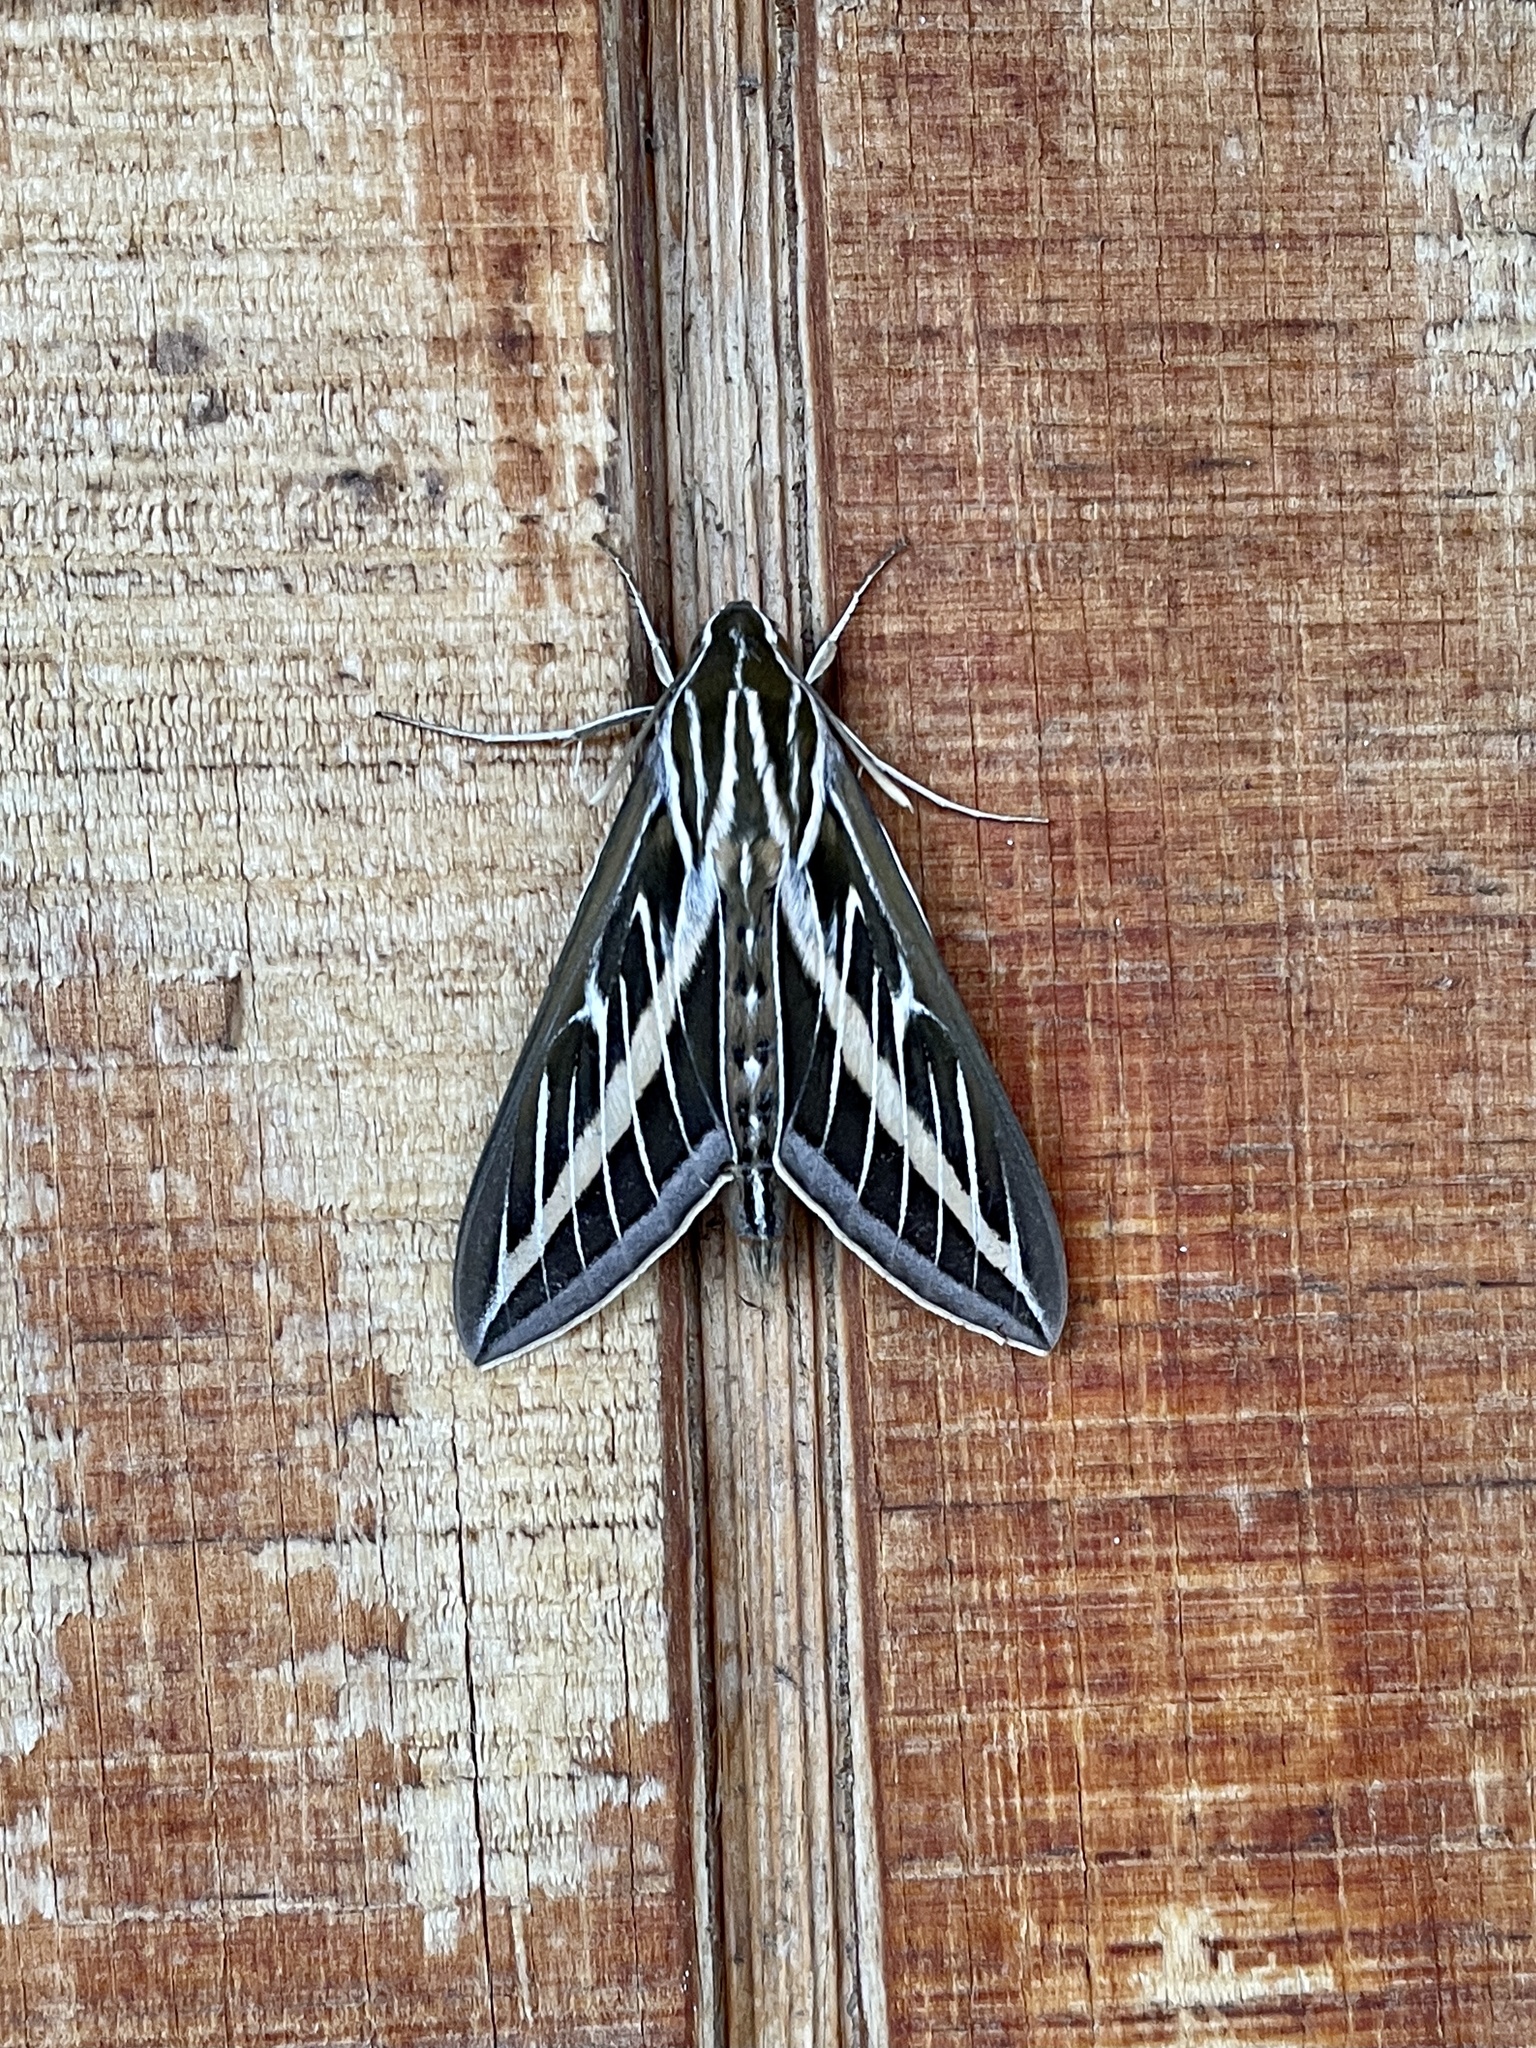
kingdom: Animalia
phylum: Arthropoda
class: Insecta
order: Lepidoptera
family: Sphingidae
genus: Hyles
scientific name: Hyles lineata
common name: White-lined sphinx
